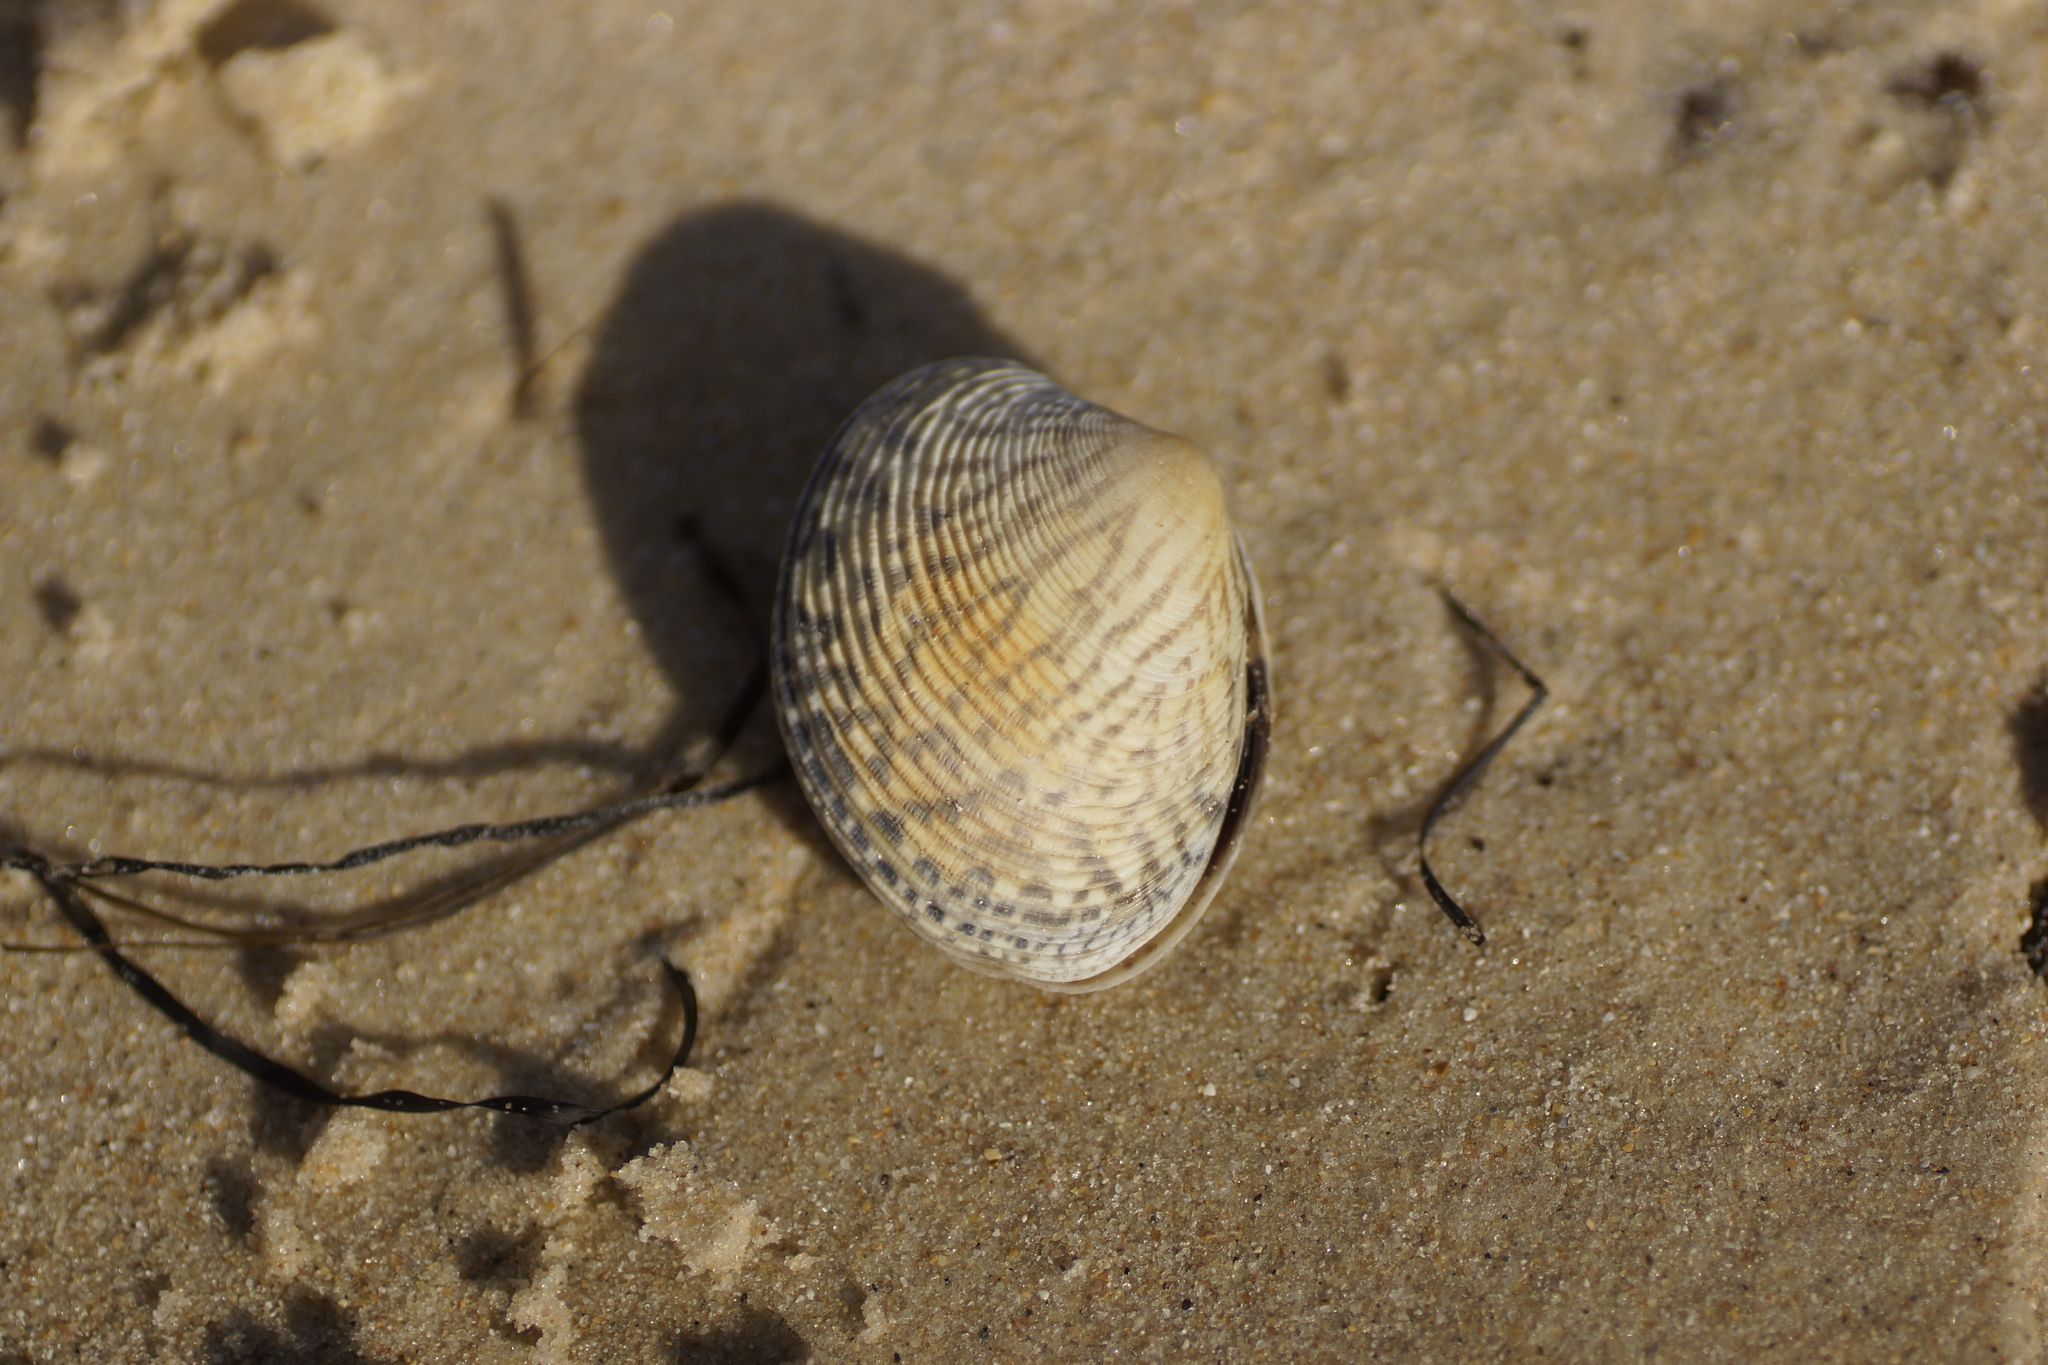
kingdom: Animalia
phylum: Mollusca
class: Bivalvia
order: Venerida
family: Veneridae
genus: Katelysia
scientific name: Katelysia rhytiphora
